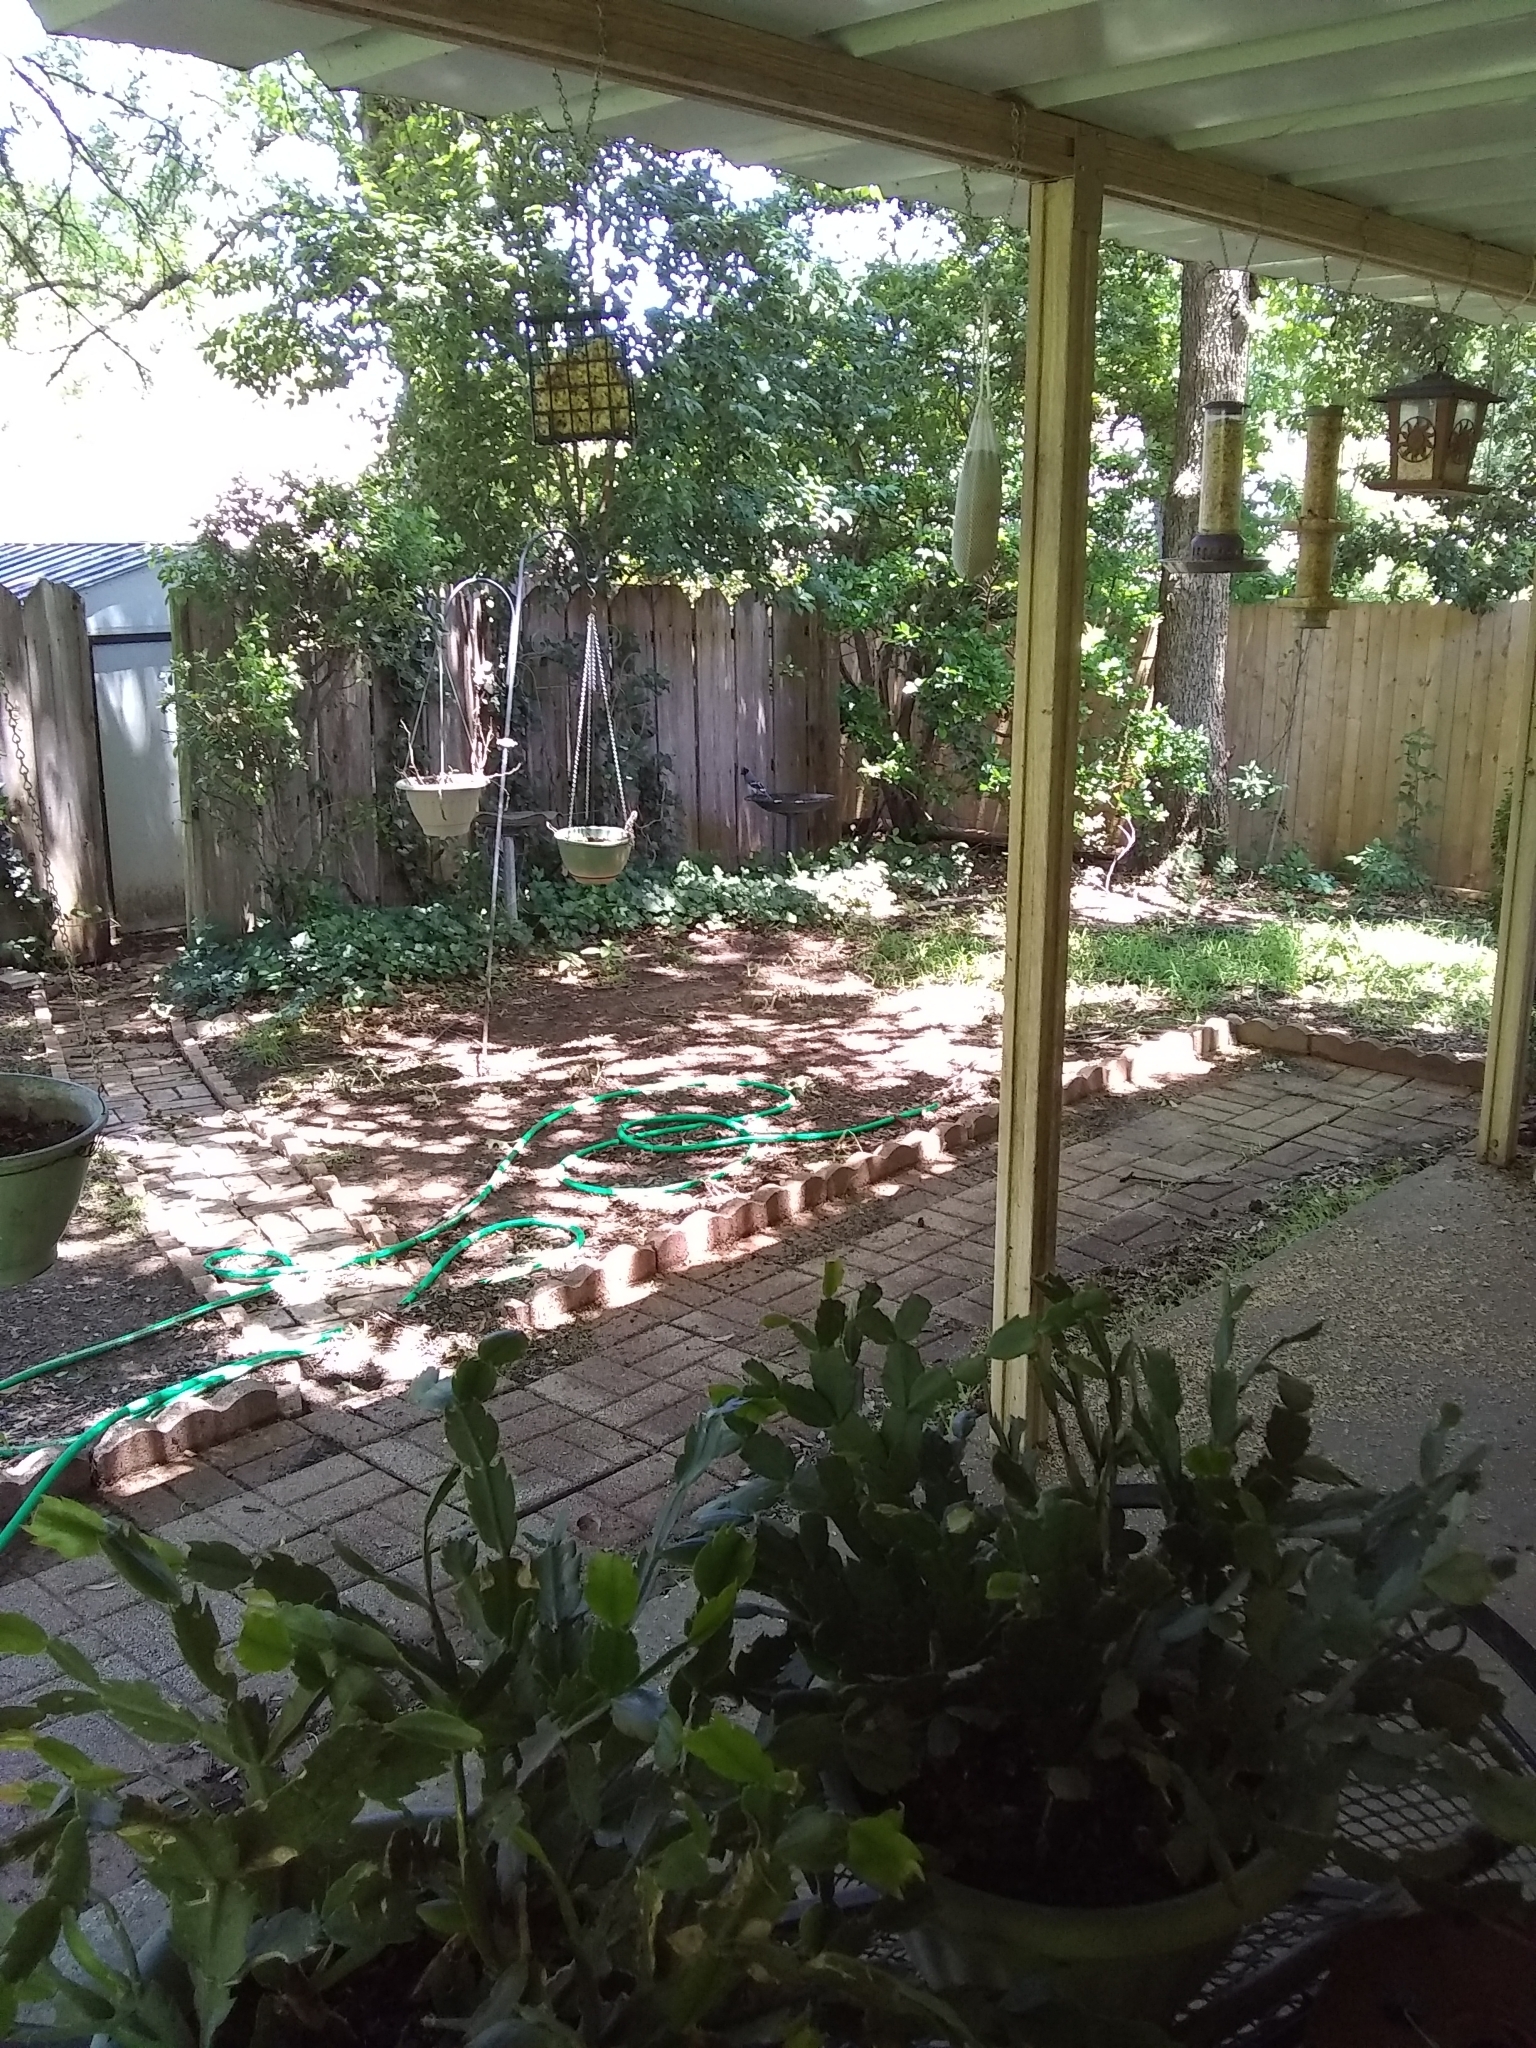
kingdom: Animalia
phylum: Chordata
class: Aves
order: Passeriformes
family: Corvidae
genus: Cyanocitta
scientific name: Cyanocitta cristata
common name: Blue jay
